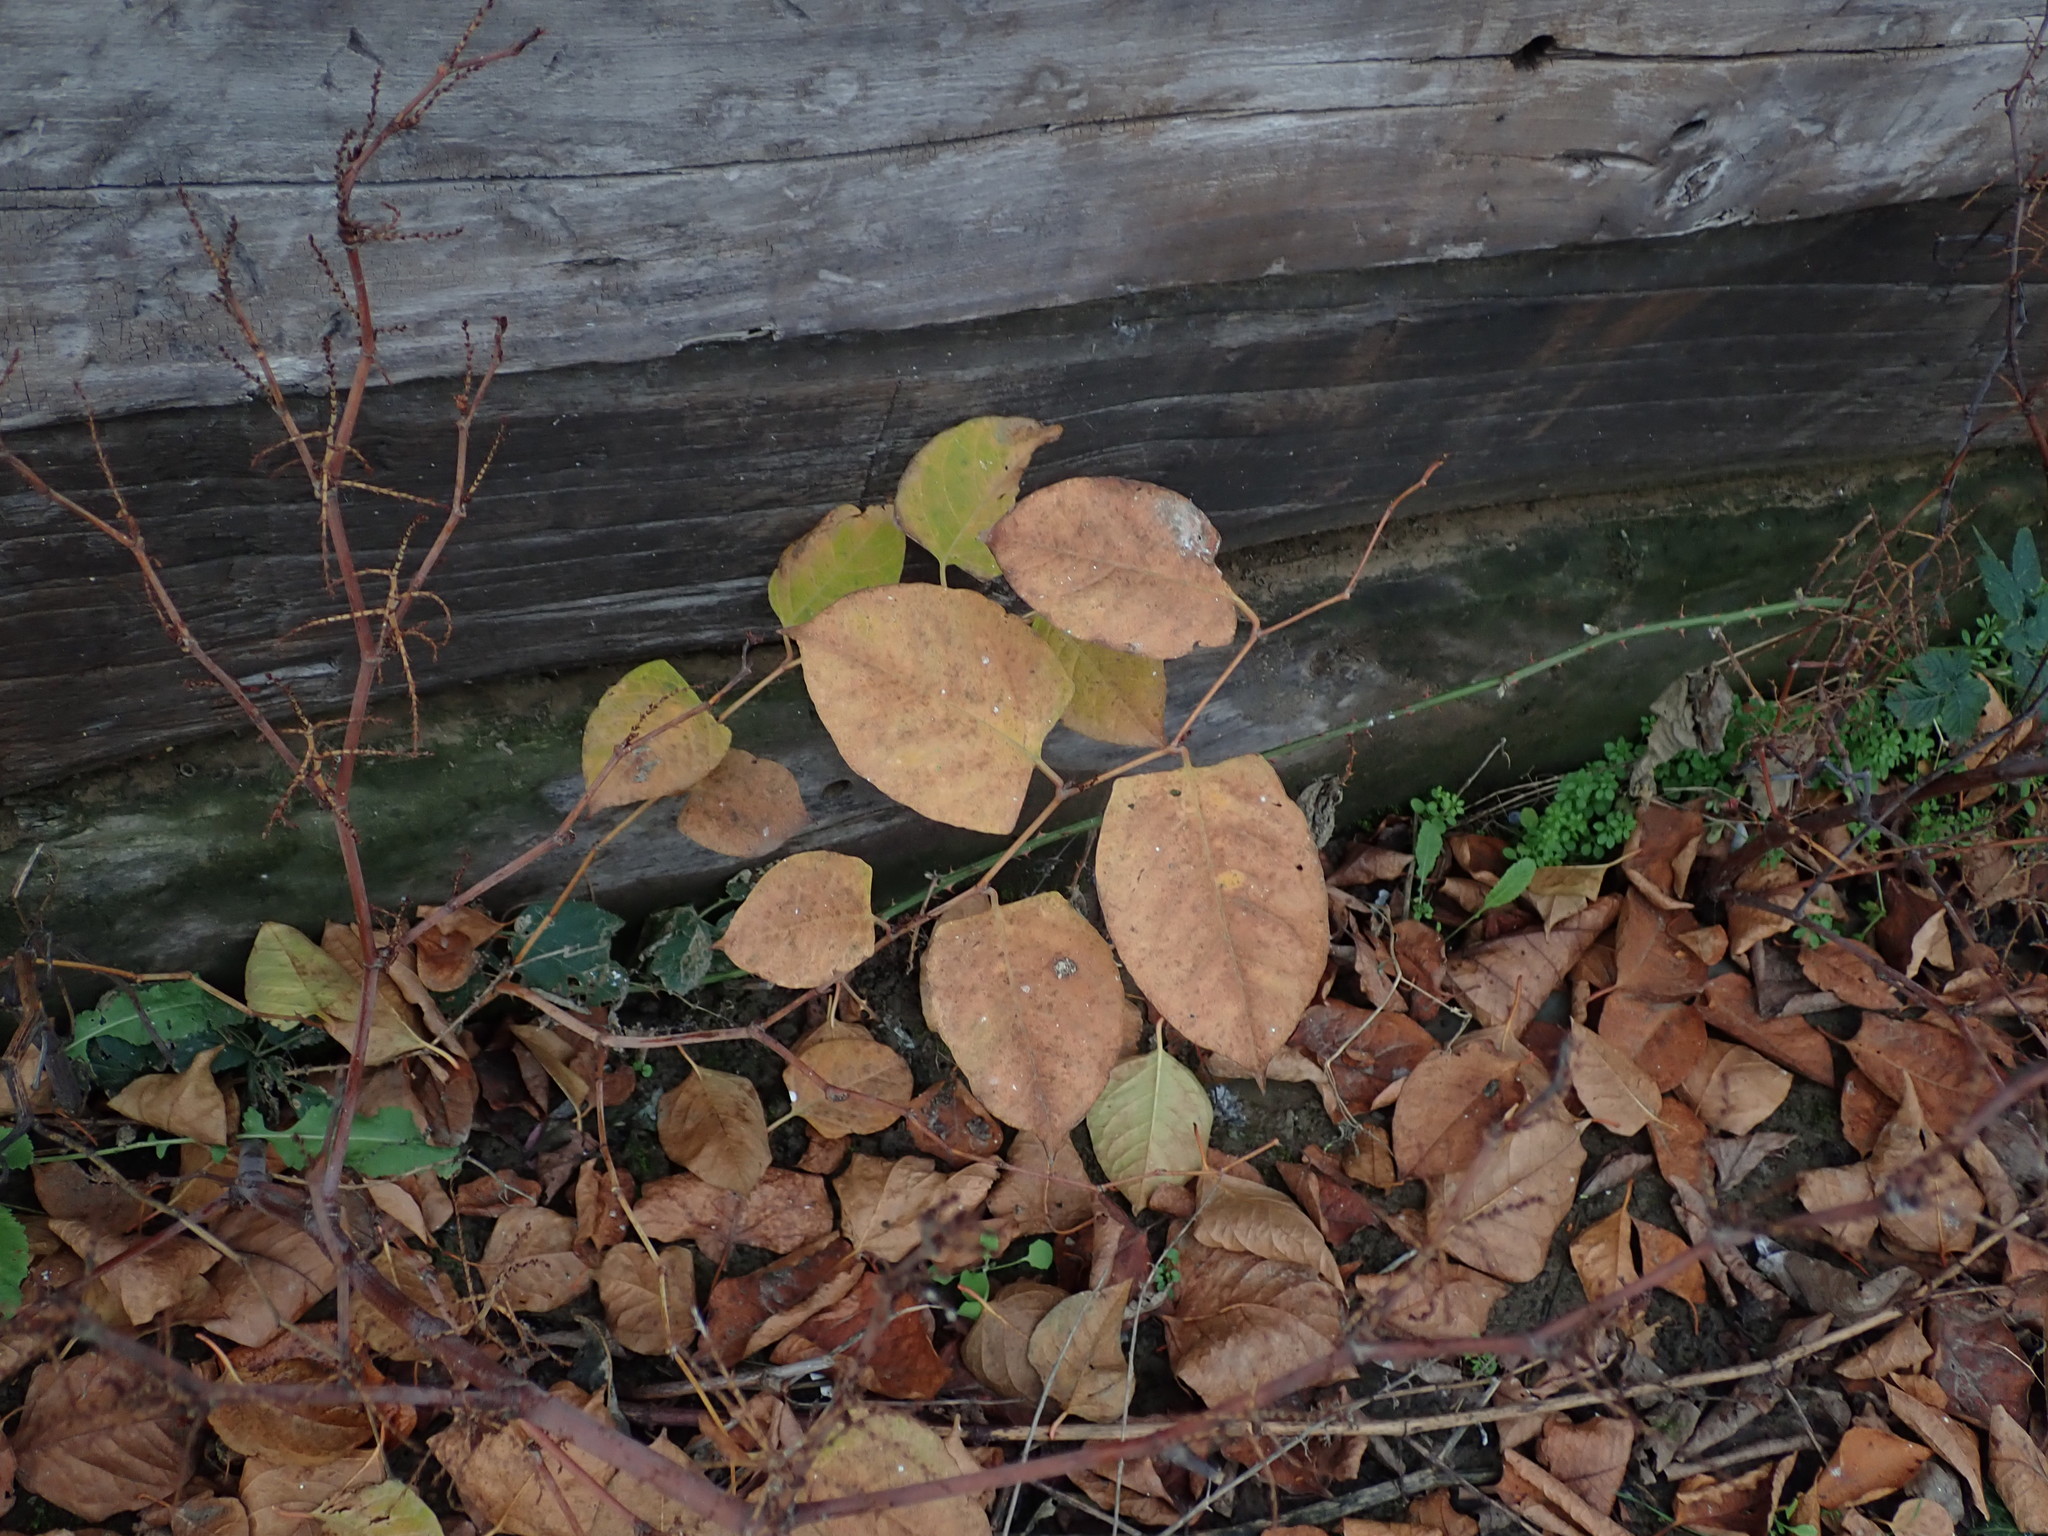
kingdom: Plantae
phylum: Tracheophyta
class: Magnoliopsida
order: Caryophyllales
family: Polygonaceae
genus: Reynoutria
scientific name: Reynoutria japonica
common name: Japanese knotweed
